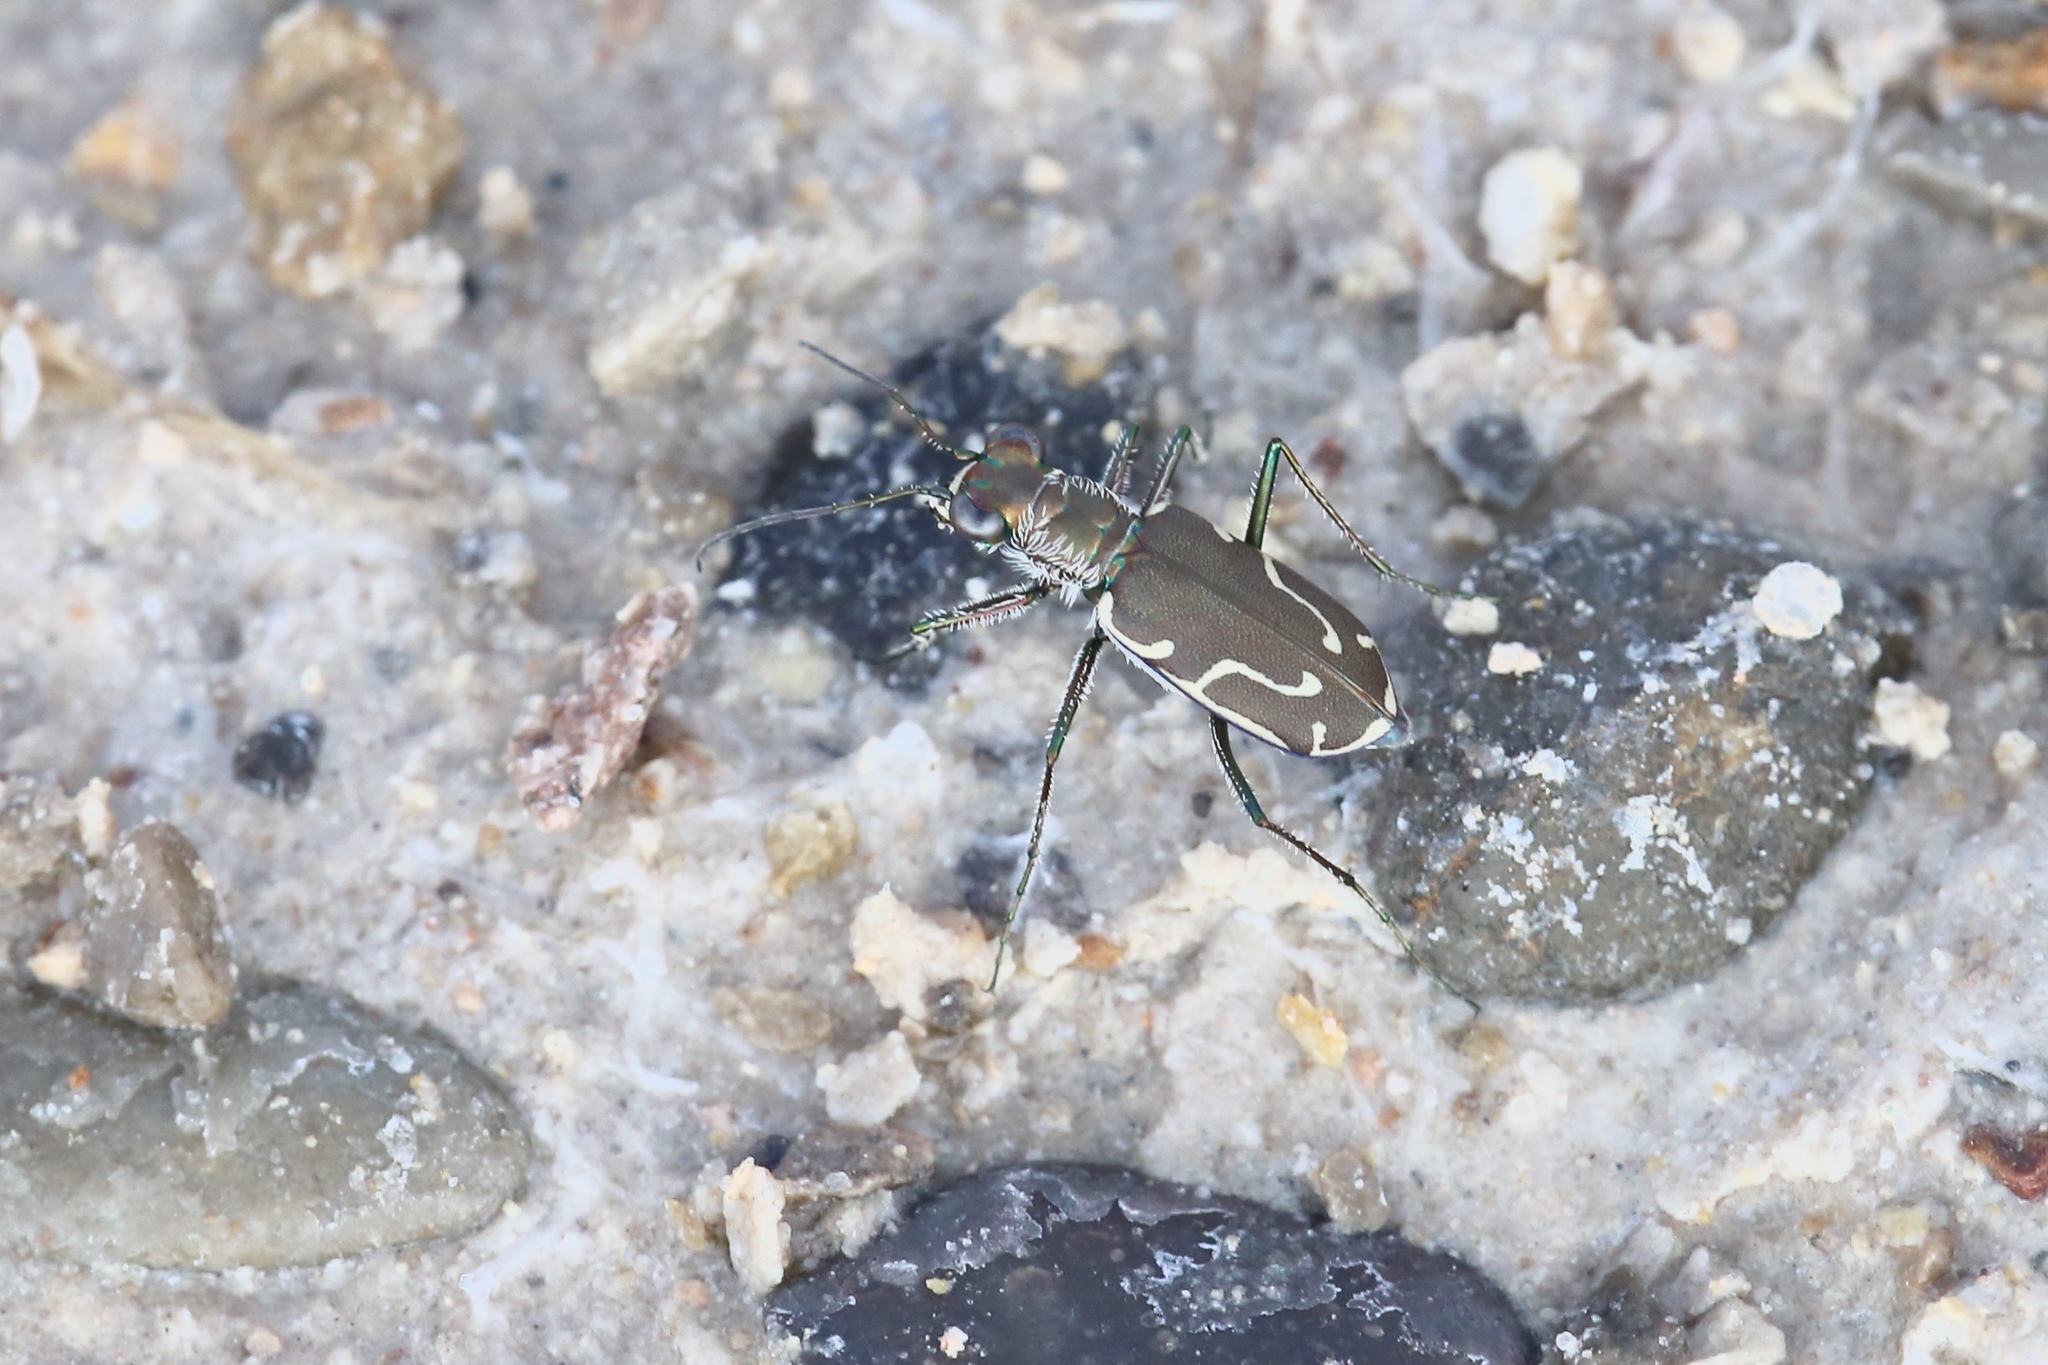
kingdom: Animalia
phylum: Arthropoda
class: Insecta
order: Coleoptera
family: Carabidae
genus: Cicindela
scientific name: Cicindela tenuisignata
